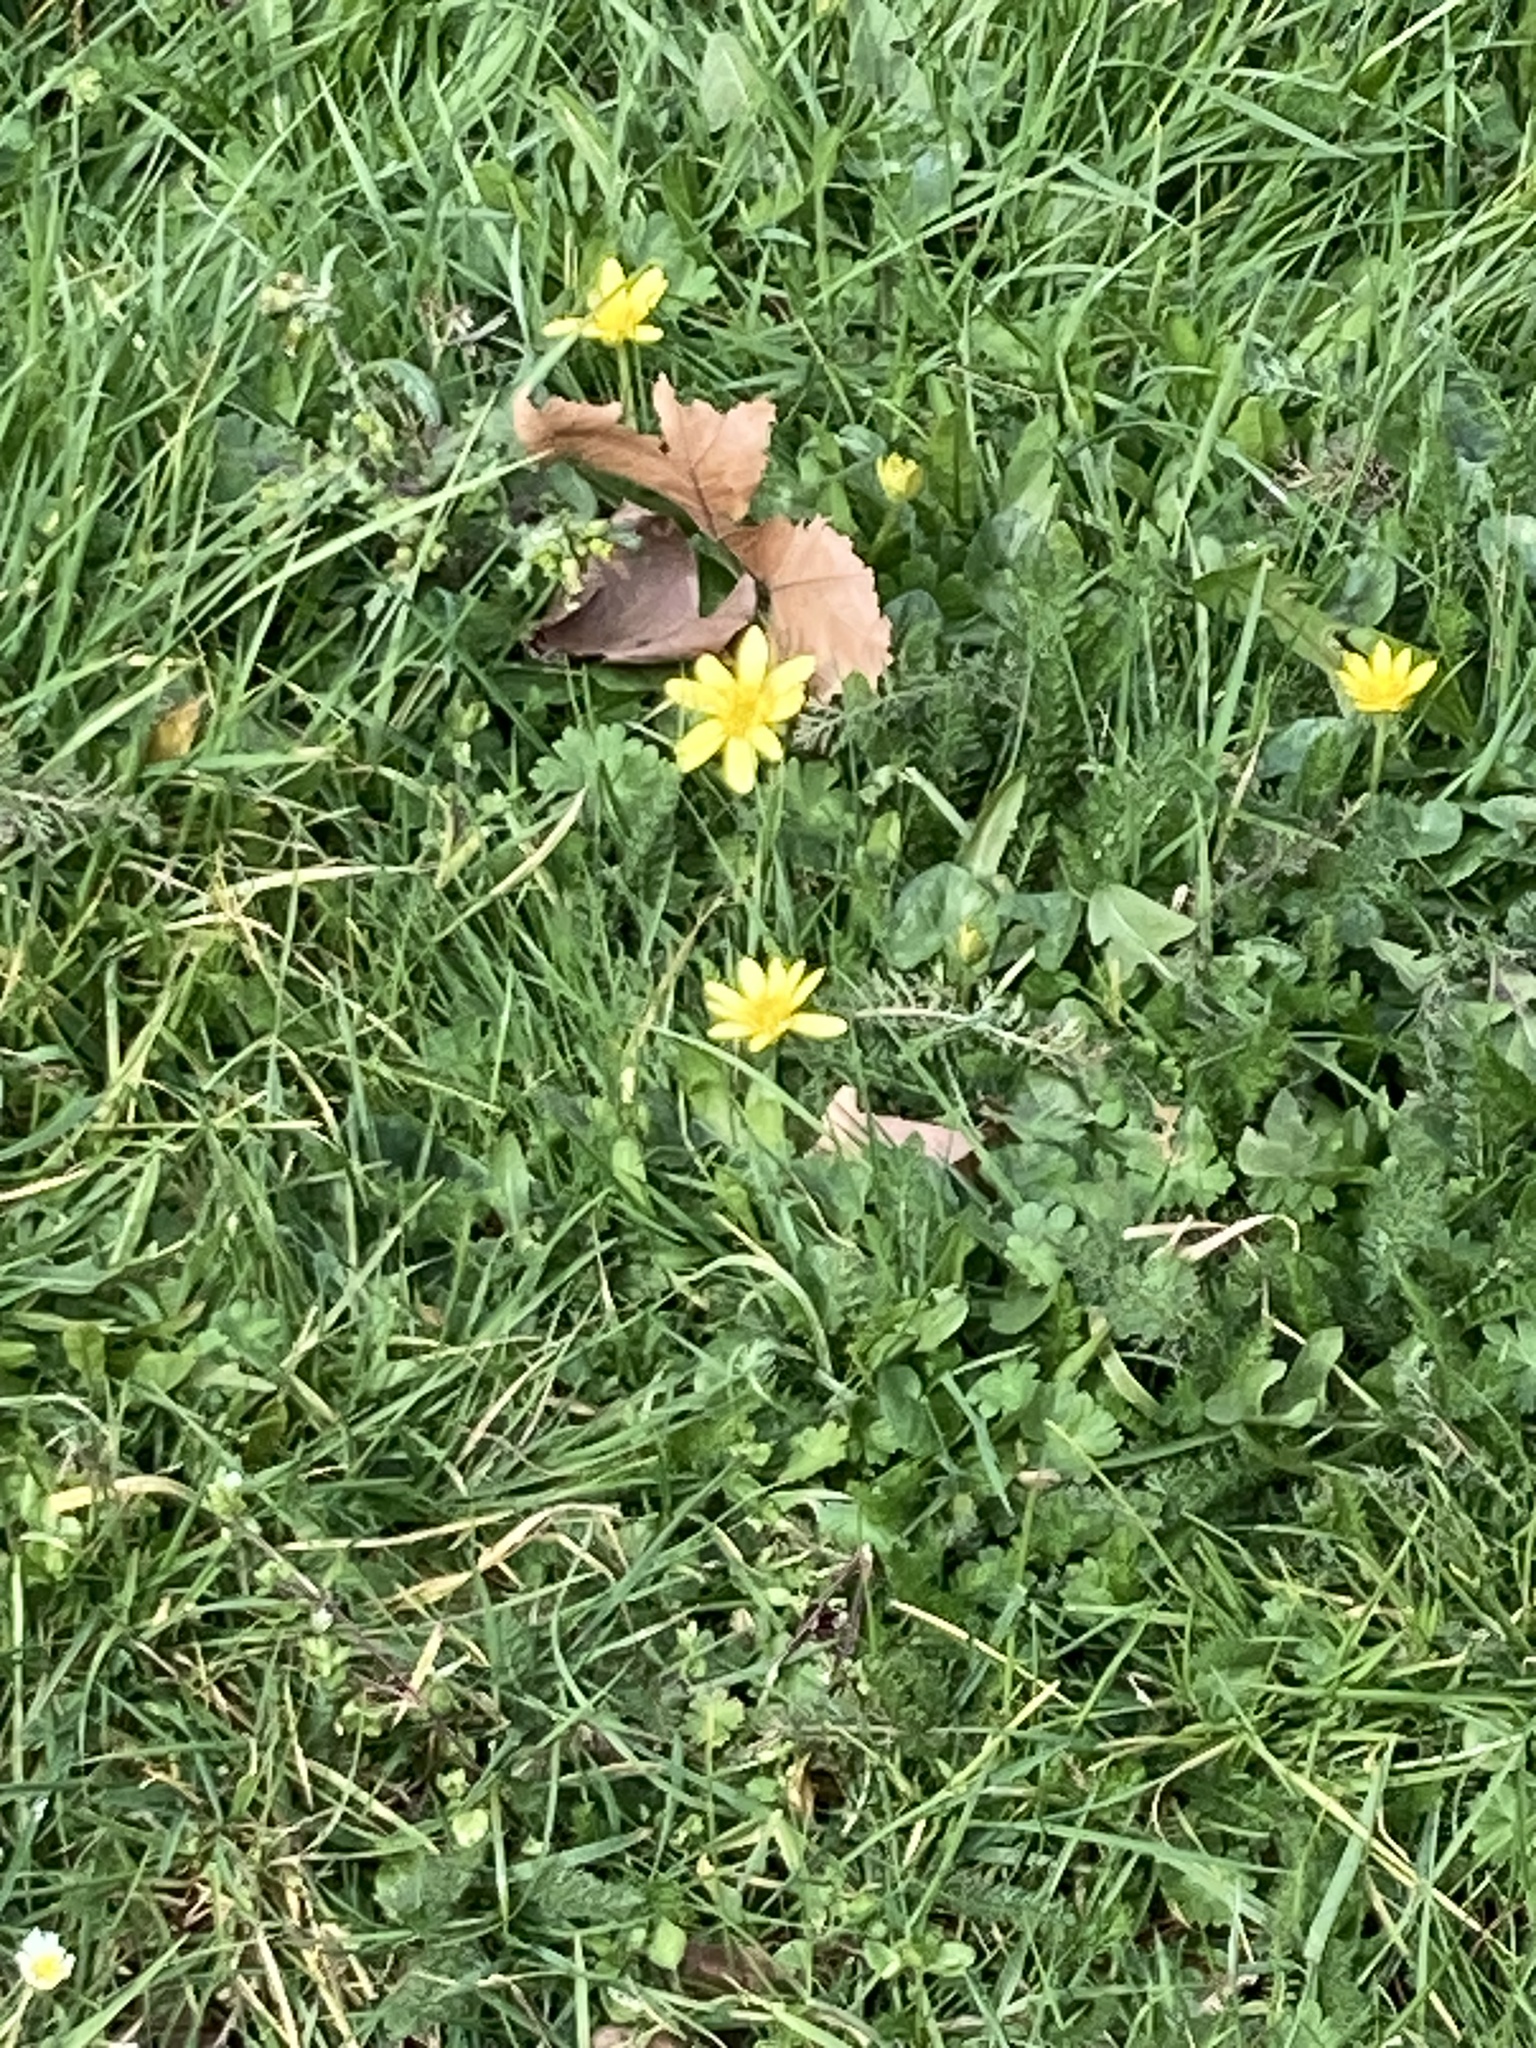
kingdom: Plantae
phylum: Tracheophyta
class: Magnoliopsida
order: Ranunculales
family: Ranunculaceae
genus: Ficaria
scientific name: Ficaria verna
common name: Lesser celandine
